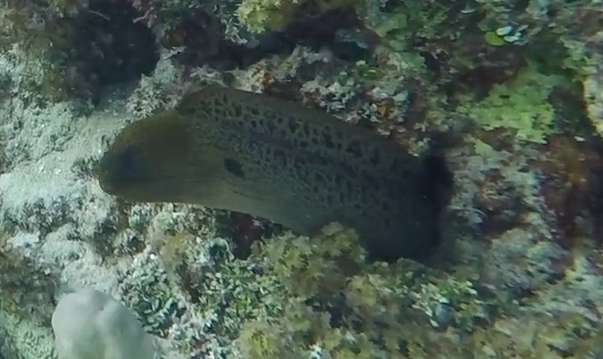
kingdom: Animalia
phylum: Chordata
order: Anguilliformes
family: Muraenidae
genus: Gymnothorax
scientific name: Gymnothorax javanicus
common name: Giant moray
